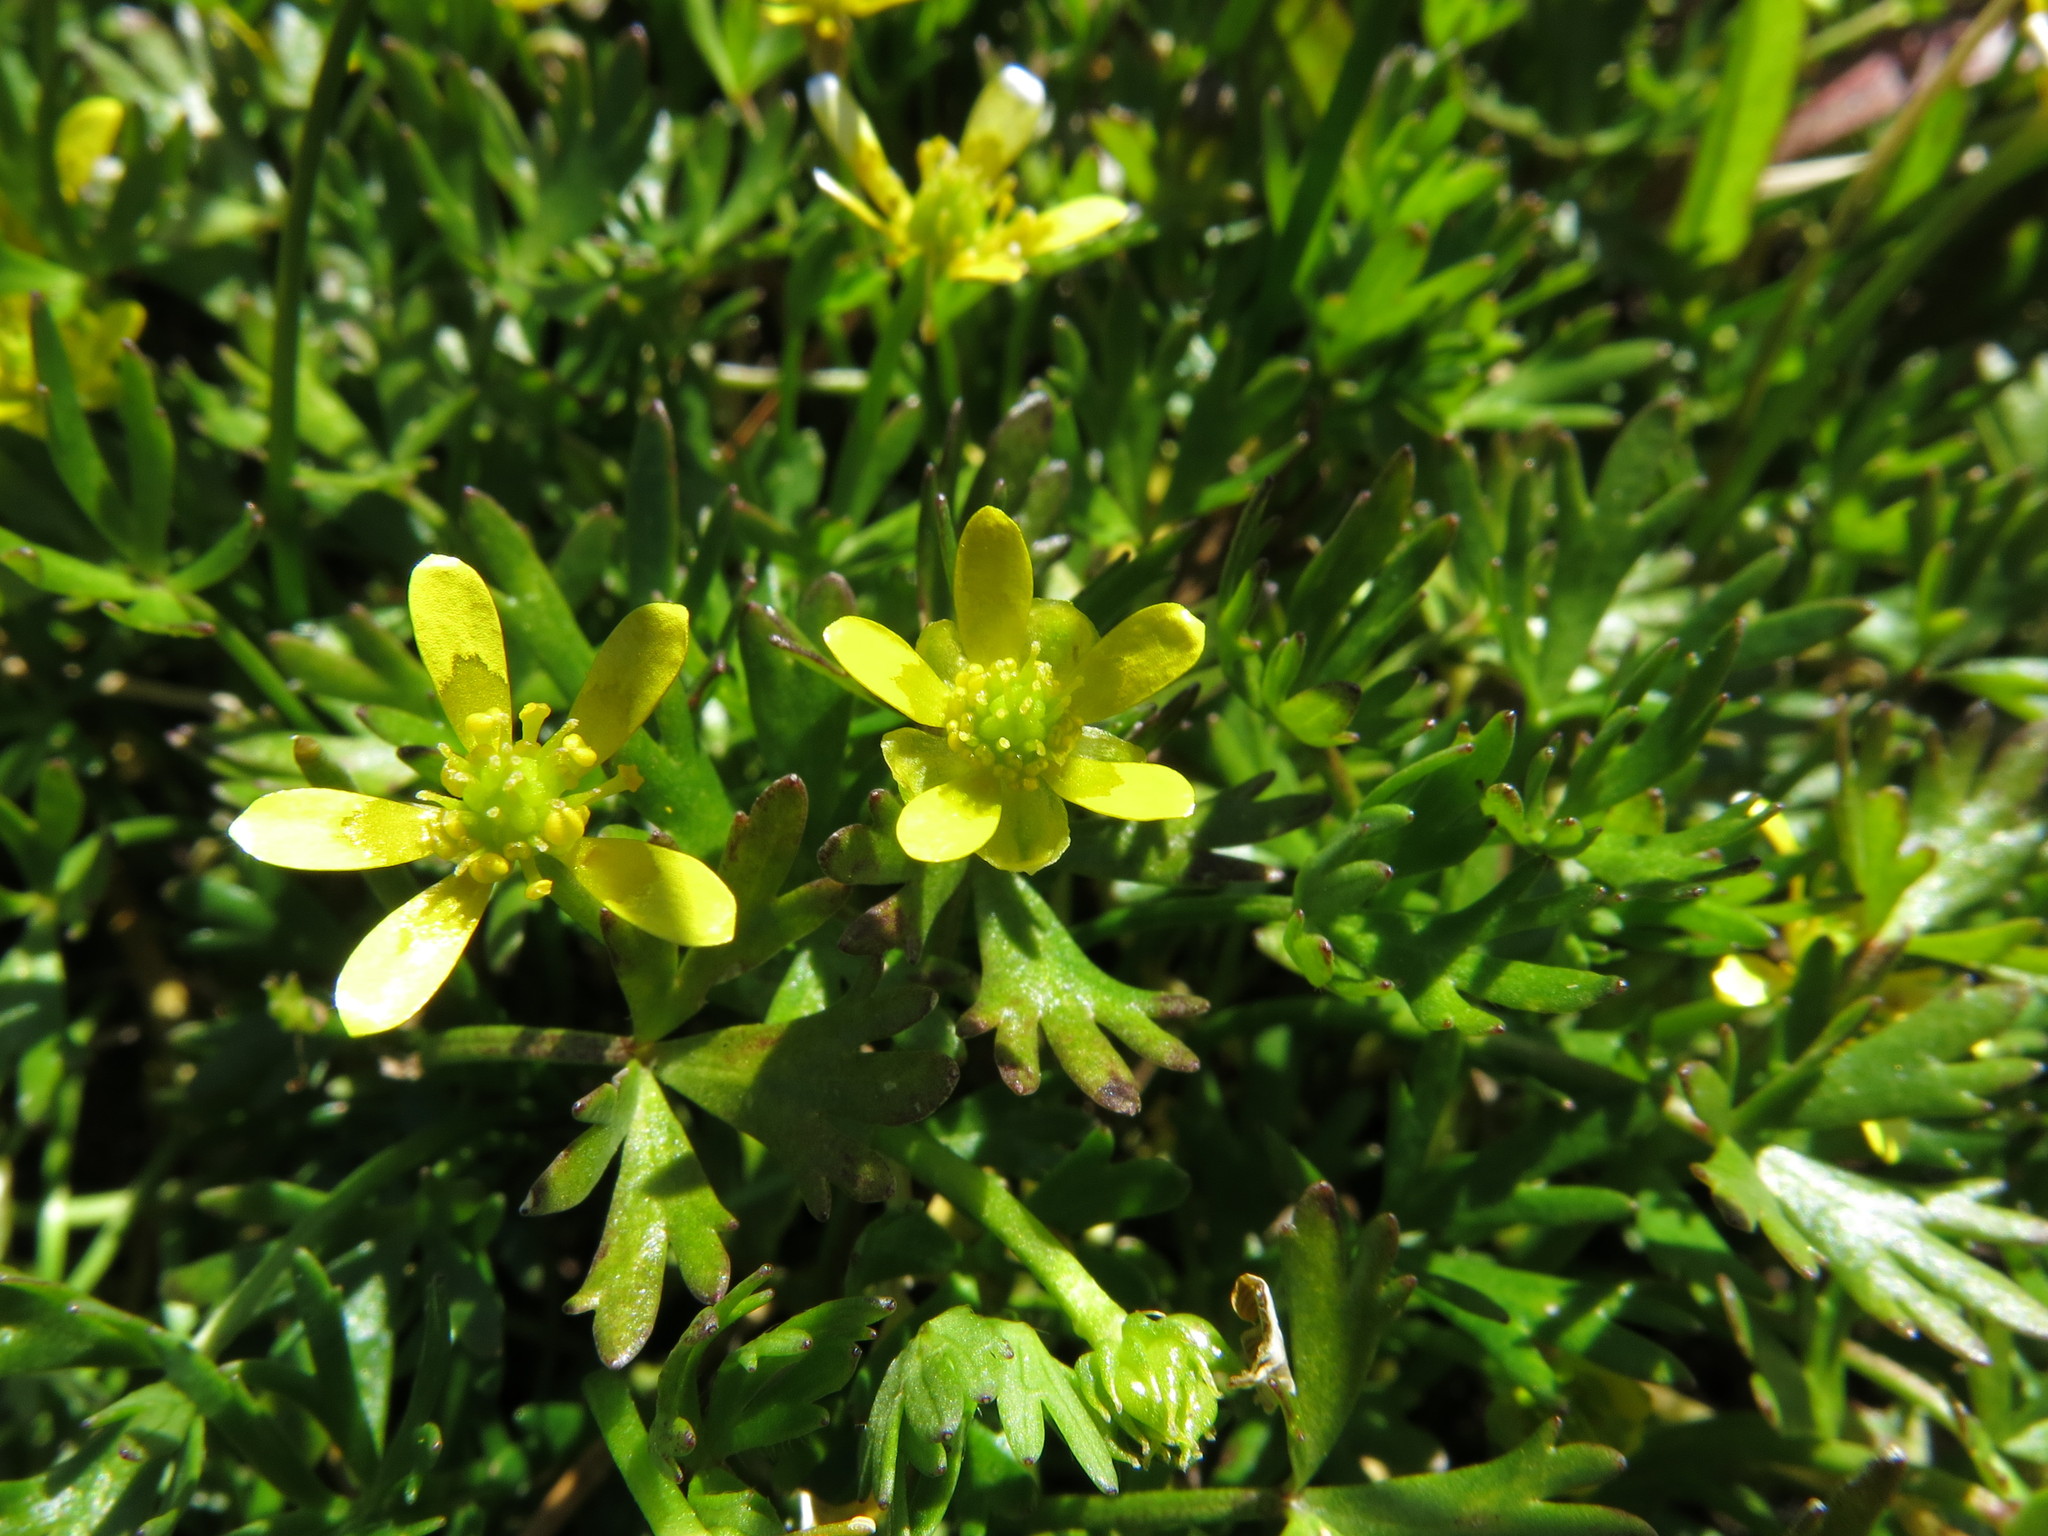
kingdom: Plantae
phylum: Tracheophyta
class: Magnoliopsida
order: Ranunculales
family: Ranunculaceae
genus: Ranunculus
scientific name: Ranunculus glabrifolius
